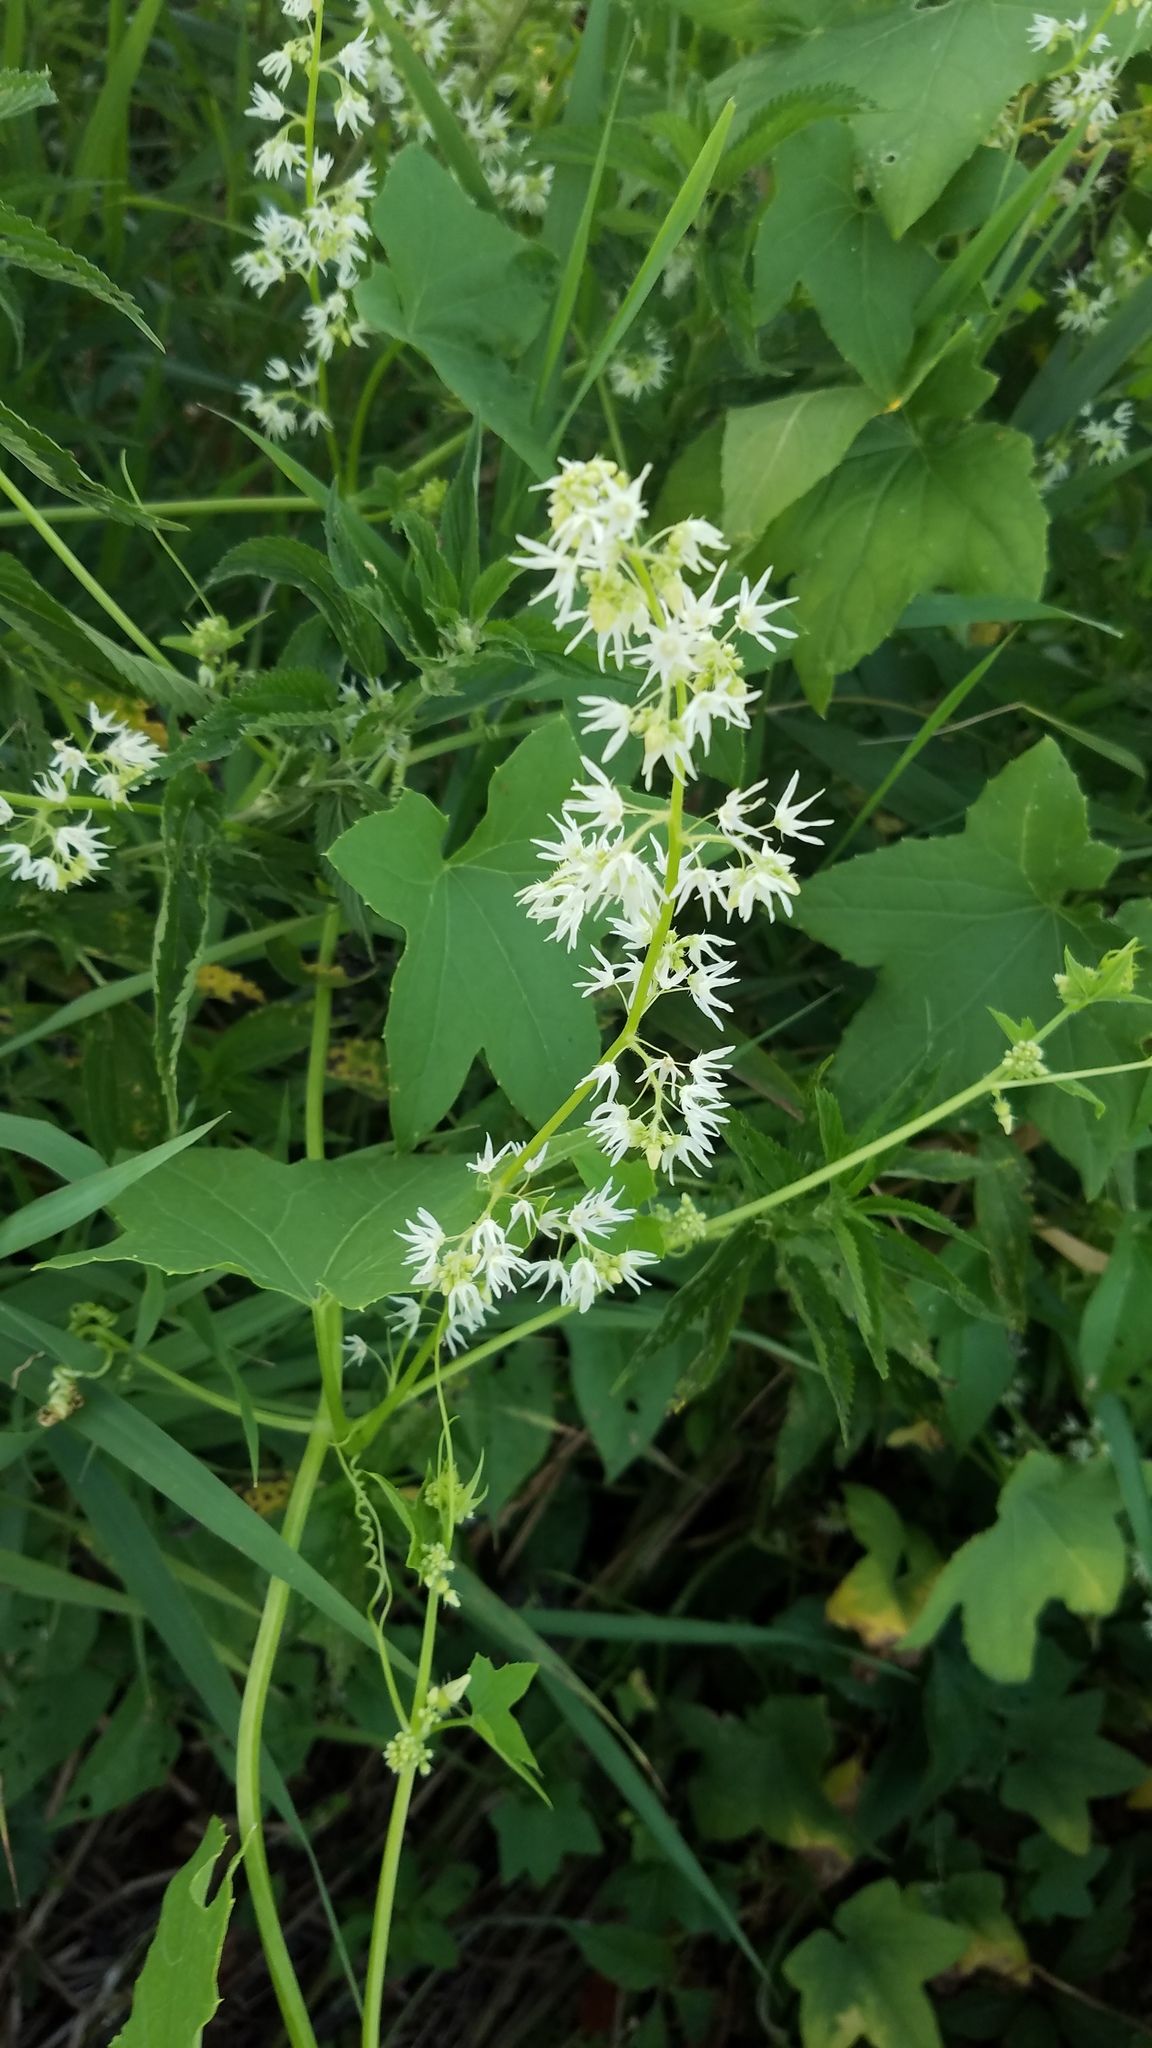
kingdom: Plantae
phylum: Tracheophyta
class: Magnoliopsida
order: Cucurbitales
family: Cucurbitaceae
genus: Echinocystis
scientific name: Echinocystis lobata
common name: Wild cucumber
